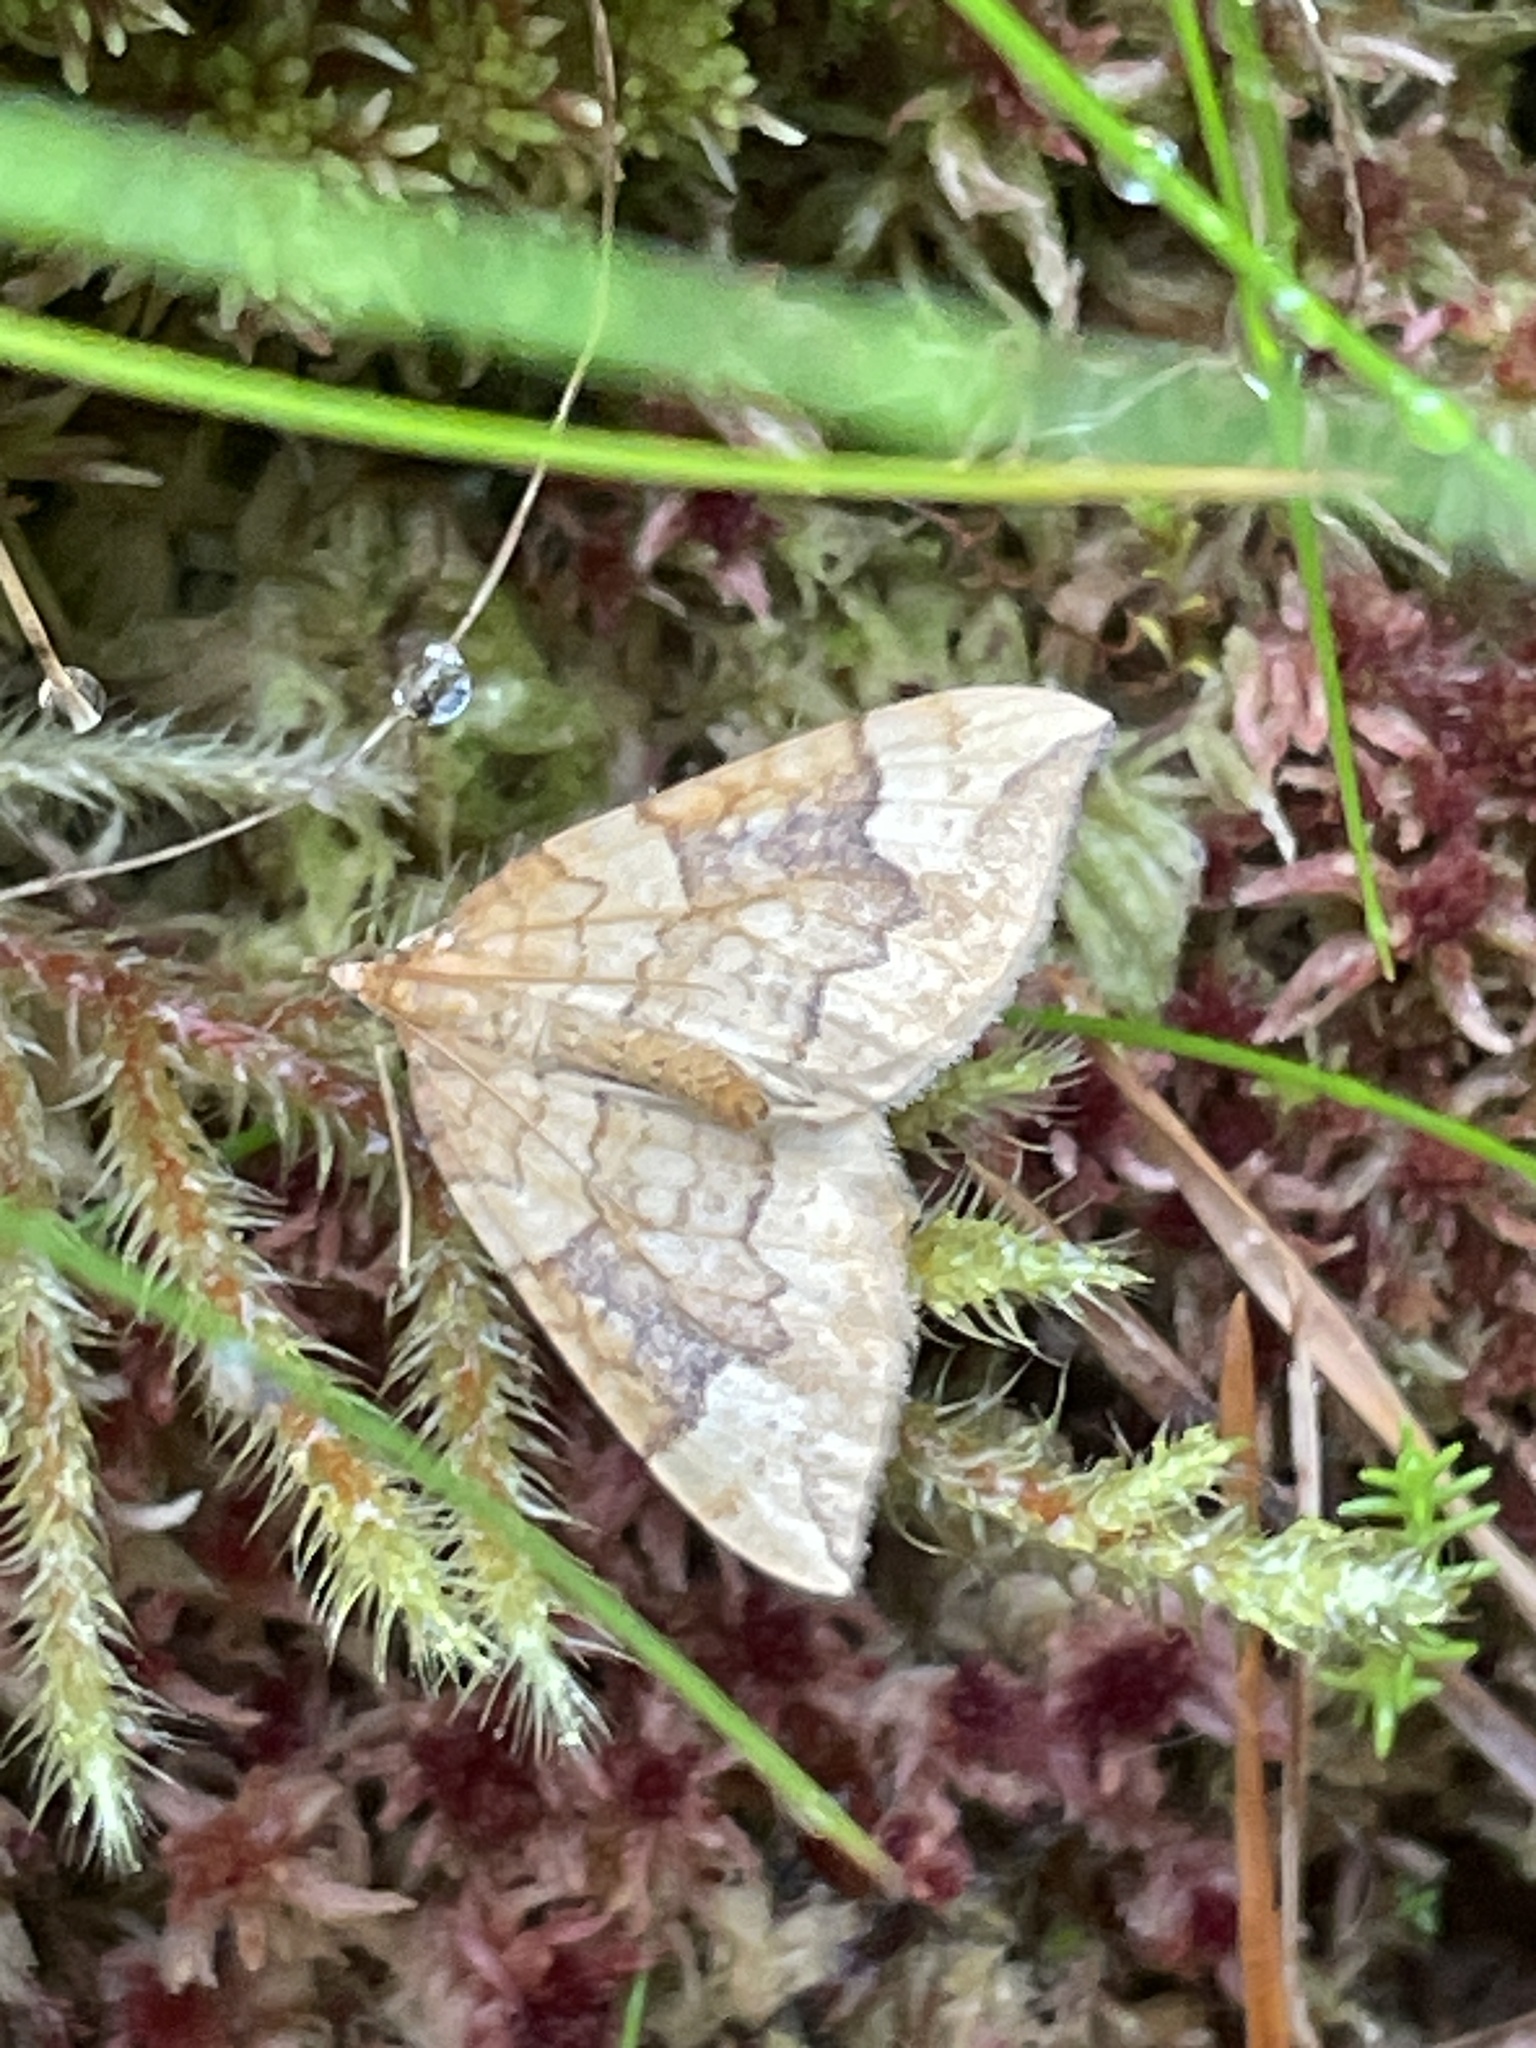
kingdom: Animalia
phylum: Arthropoda
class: Insecta
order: Lepidoptera
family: Geometridae
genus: Eulithis
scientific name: Eulithis populata
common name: Northern spinach
